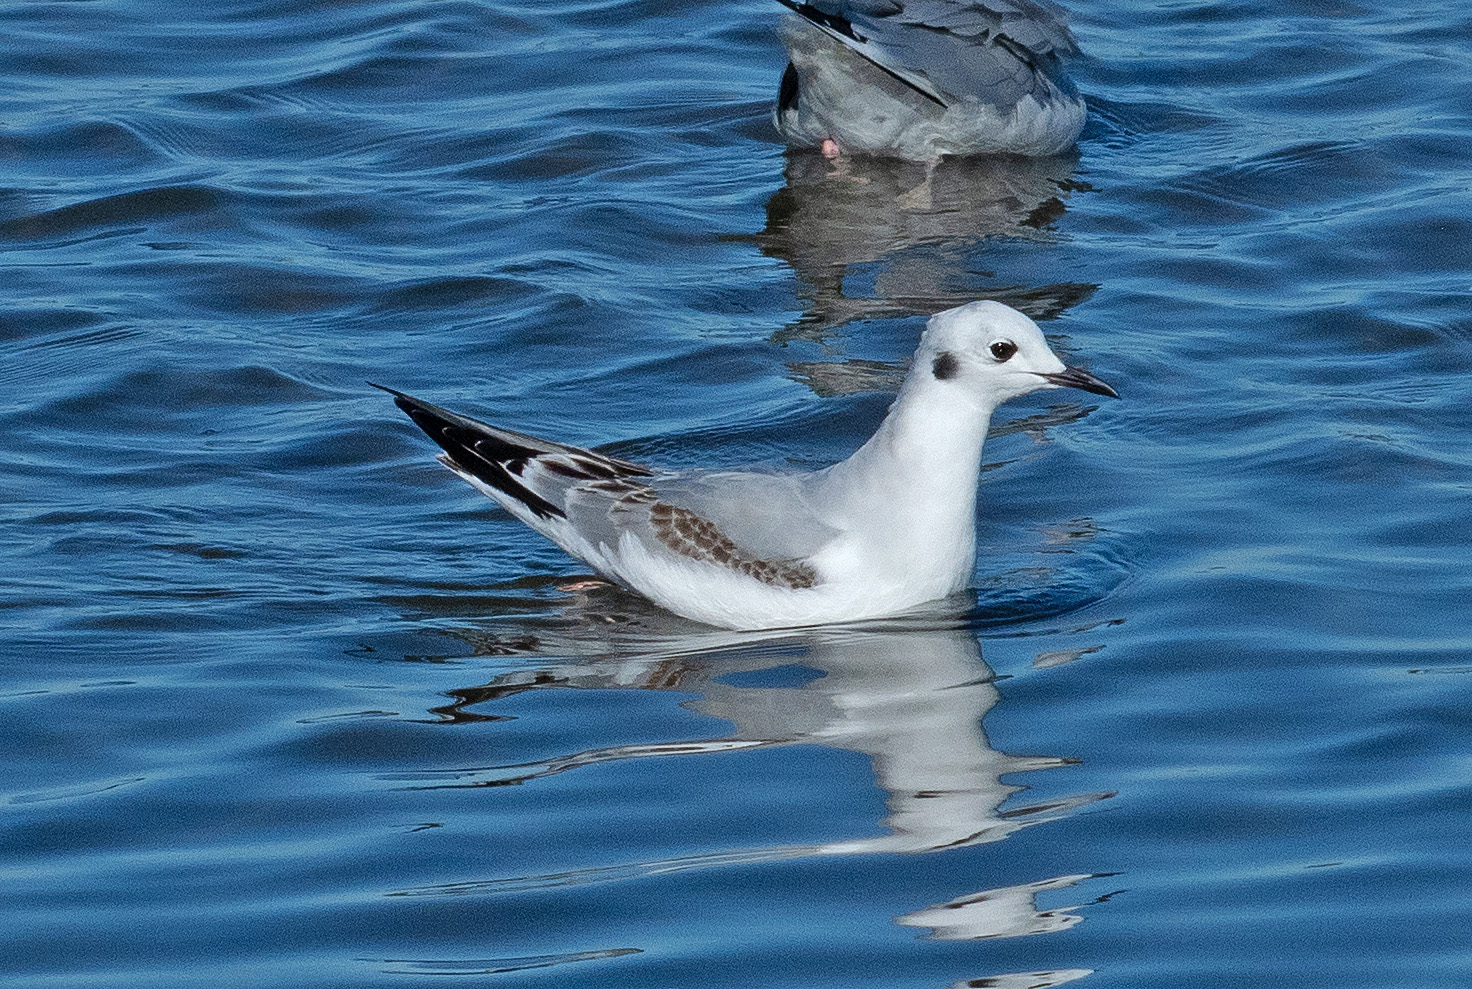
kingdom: Animalia
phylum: Chordata
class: Aves
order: Charadriiformes
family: Laridae
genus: Chroicocephalus
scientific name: Chroicocephalus philadelphia
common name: Bonaparte's gull
